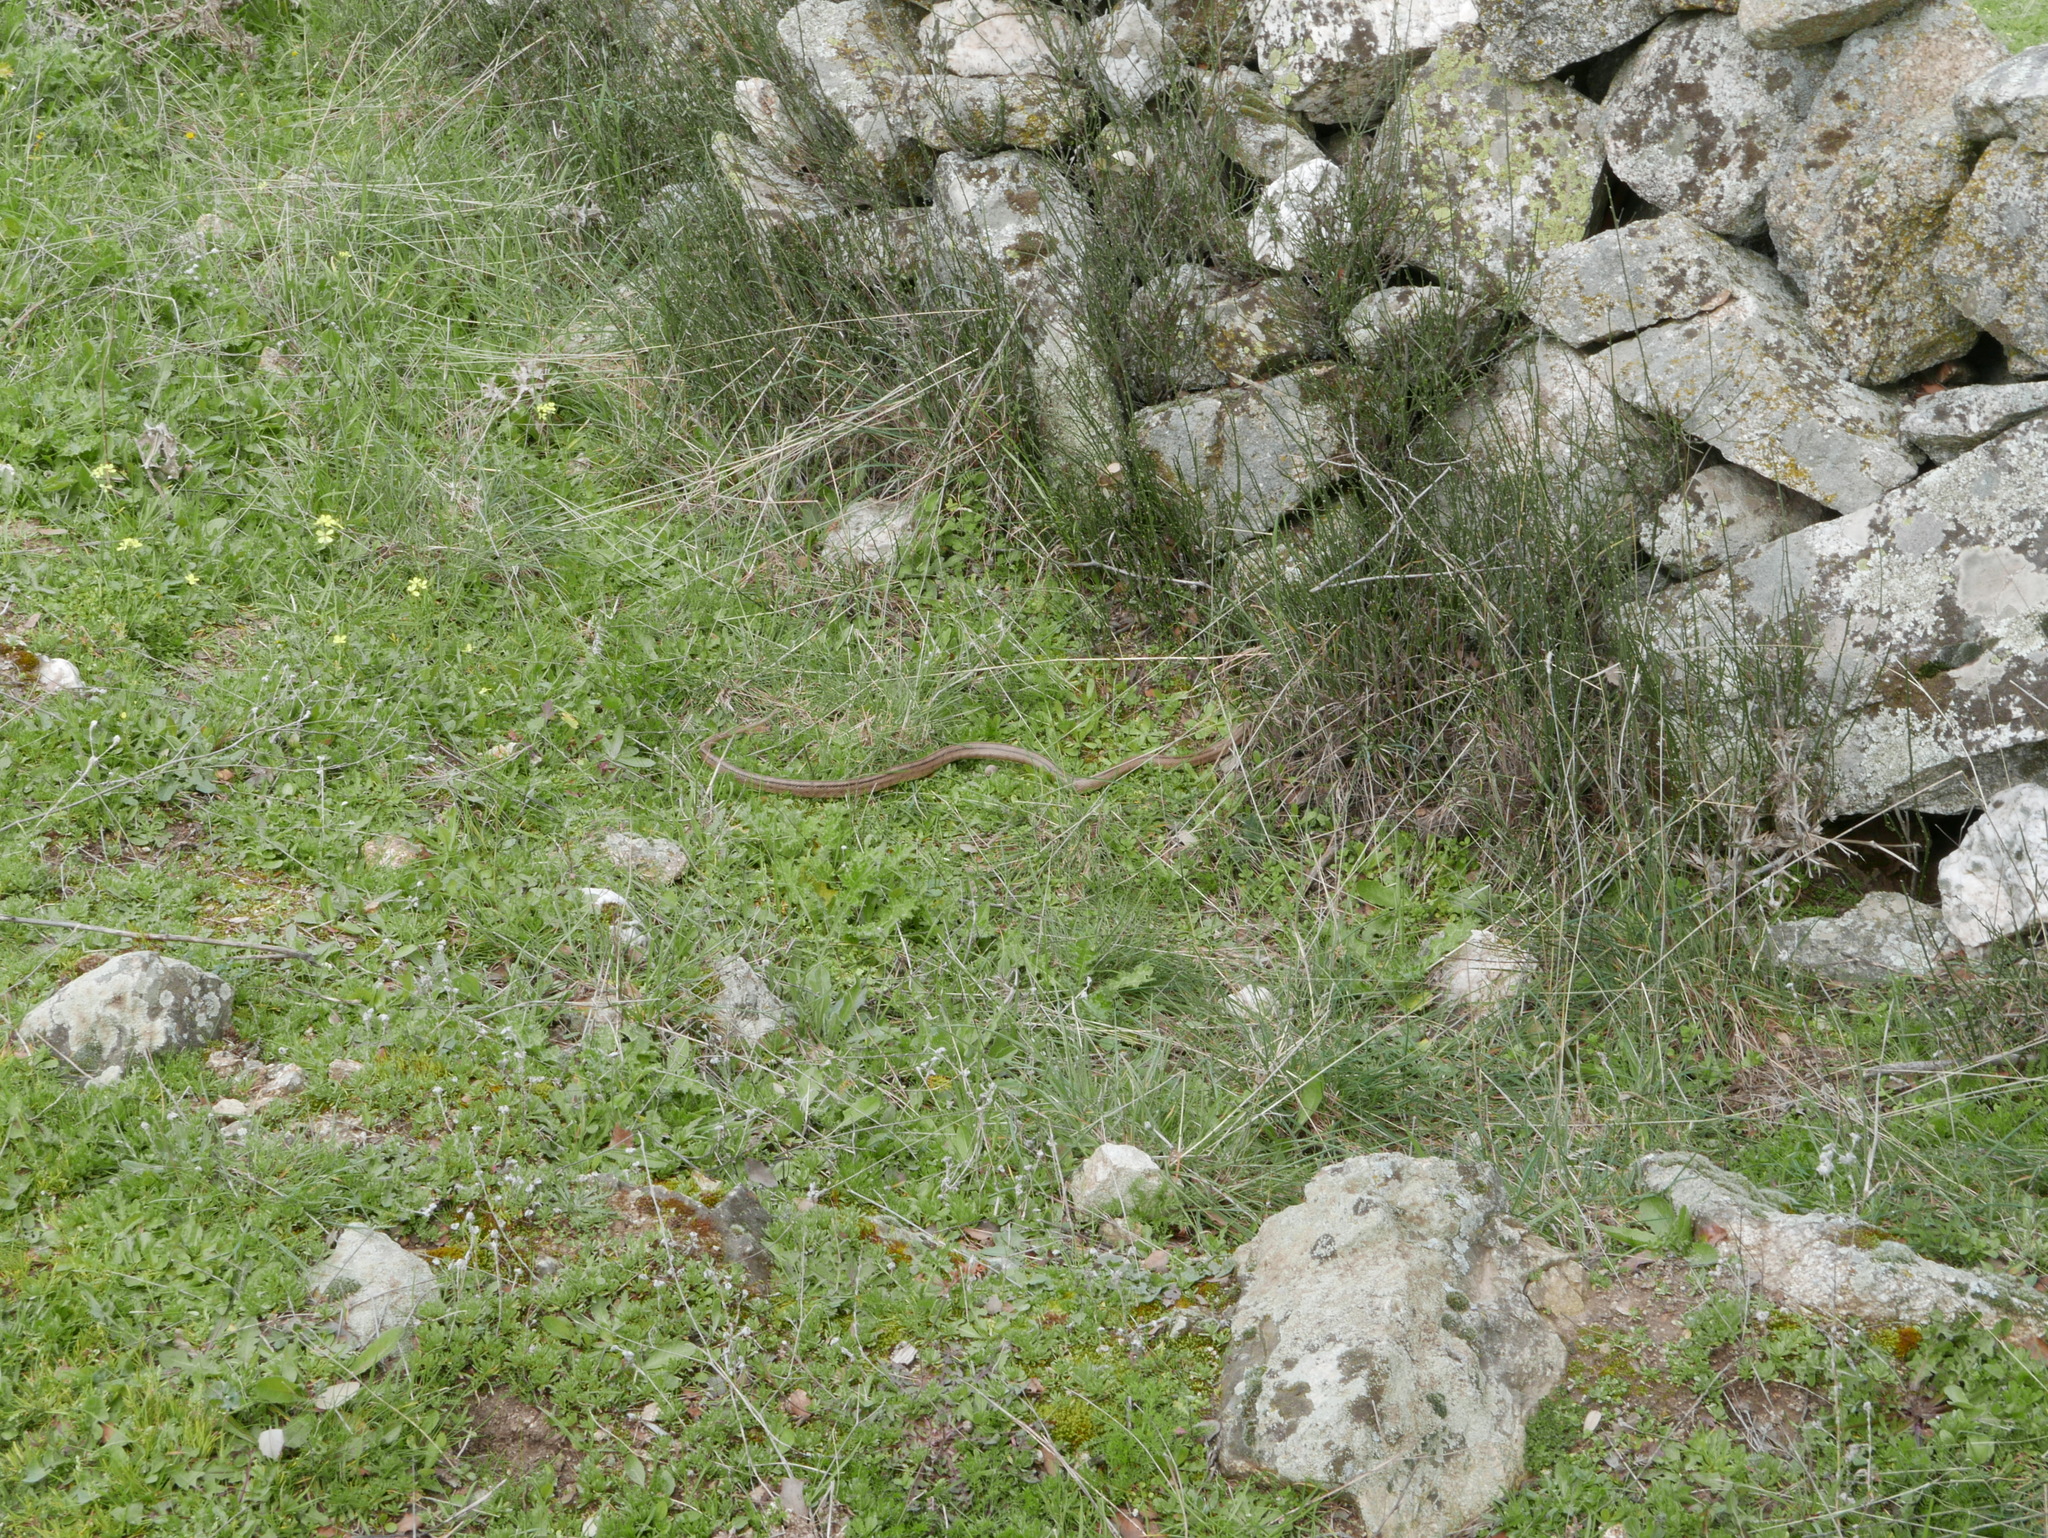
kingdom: Animalia
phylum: Chordata
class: Squamata
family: Colubridae
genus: Zamenis
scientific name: Zamenis scalaris
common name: Ladder snakes
